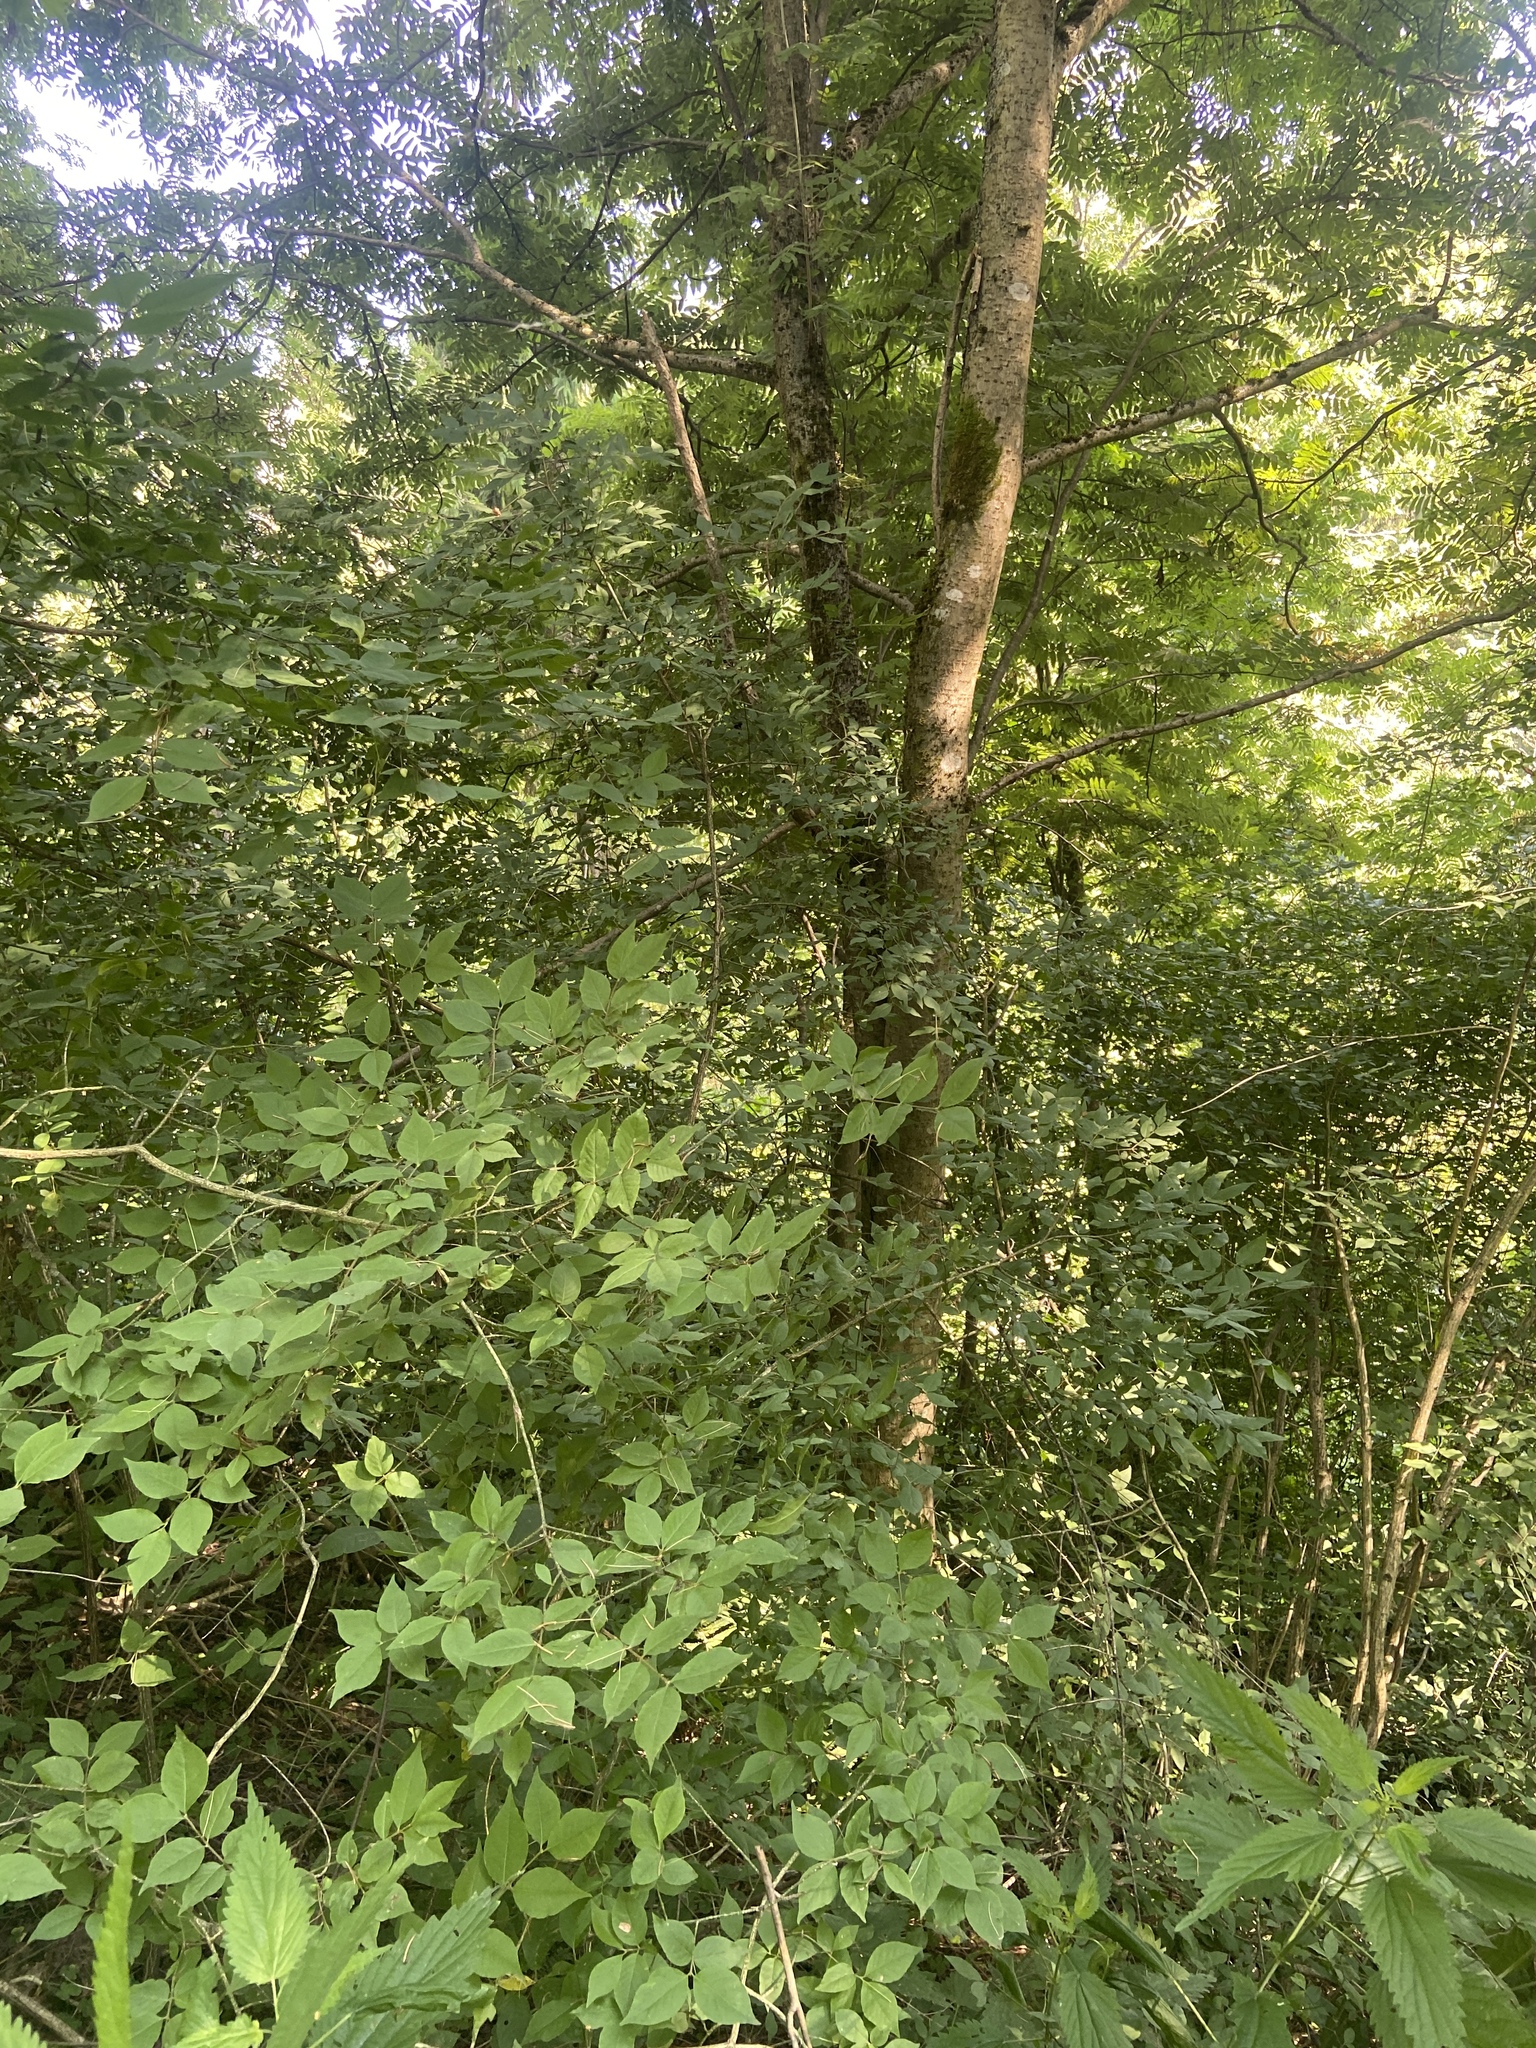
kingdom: Plantae
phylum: Tracheophyta
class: Magnoliopsida
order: Celastrales
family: Celastraceae
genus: Euonymus
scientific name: Euonymus verrucosus
